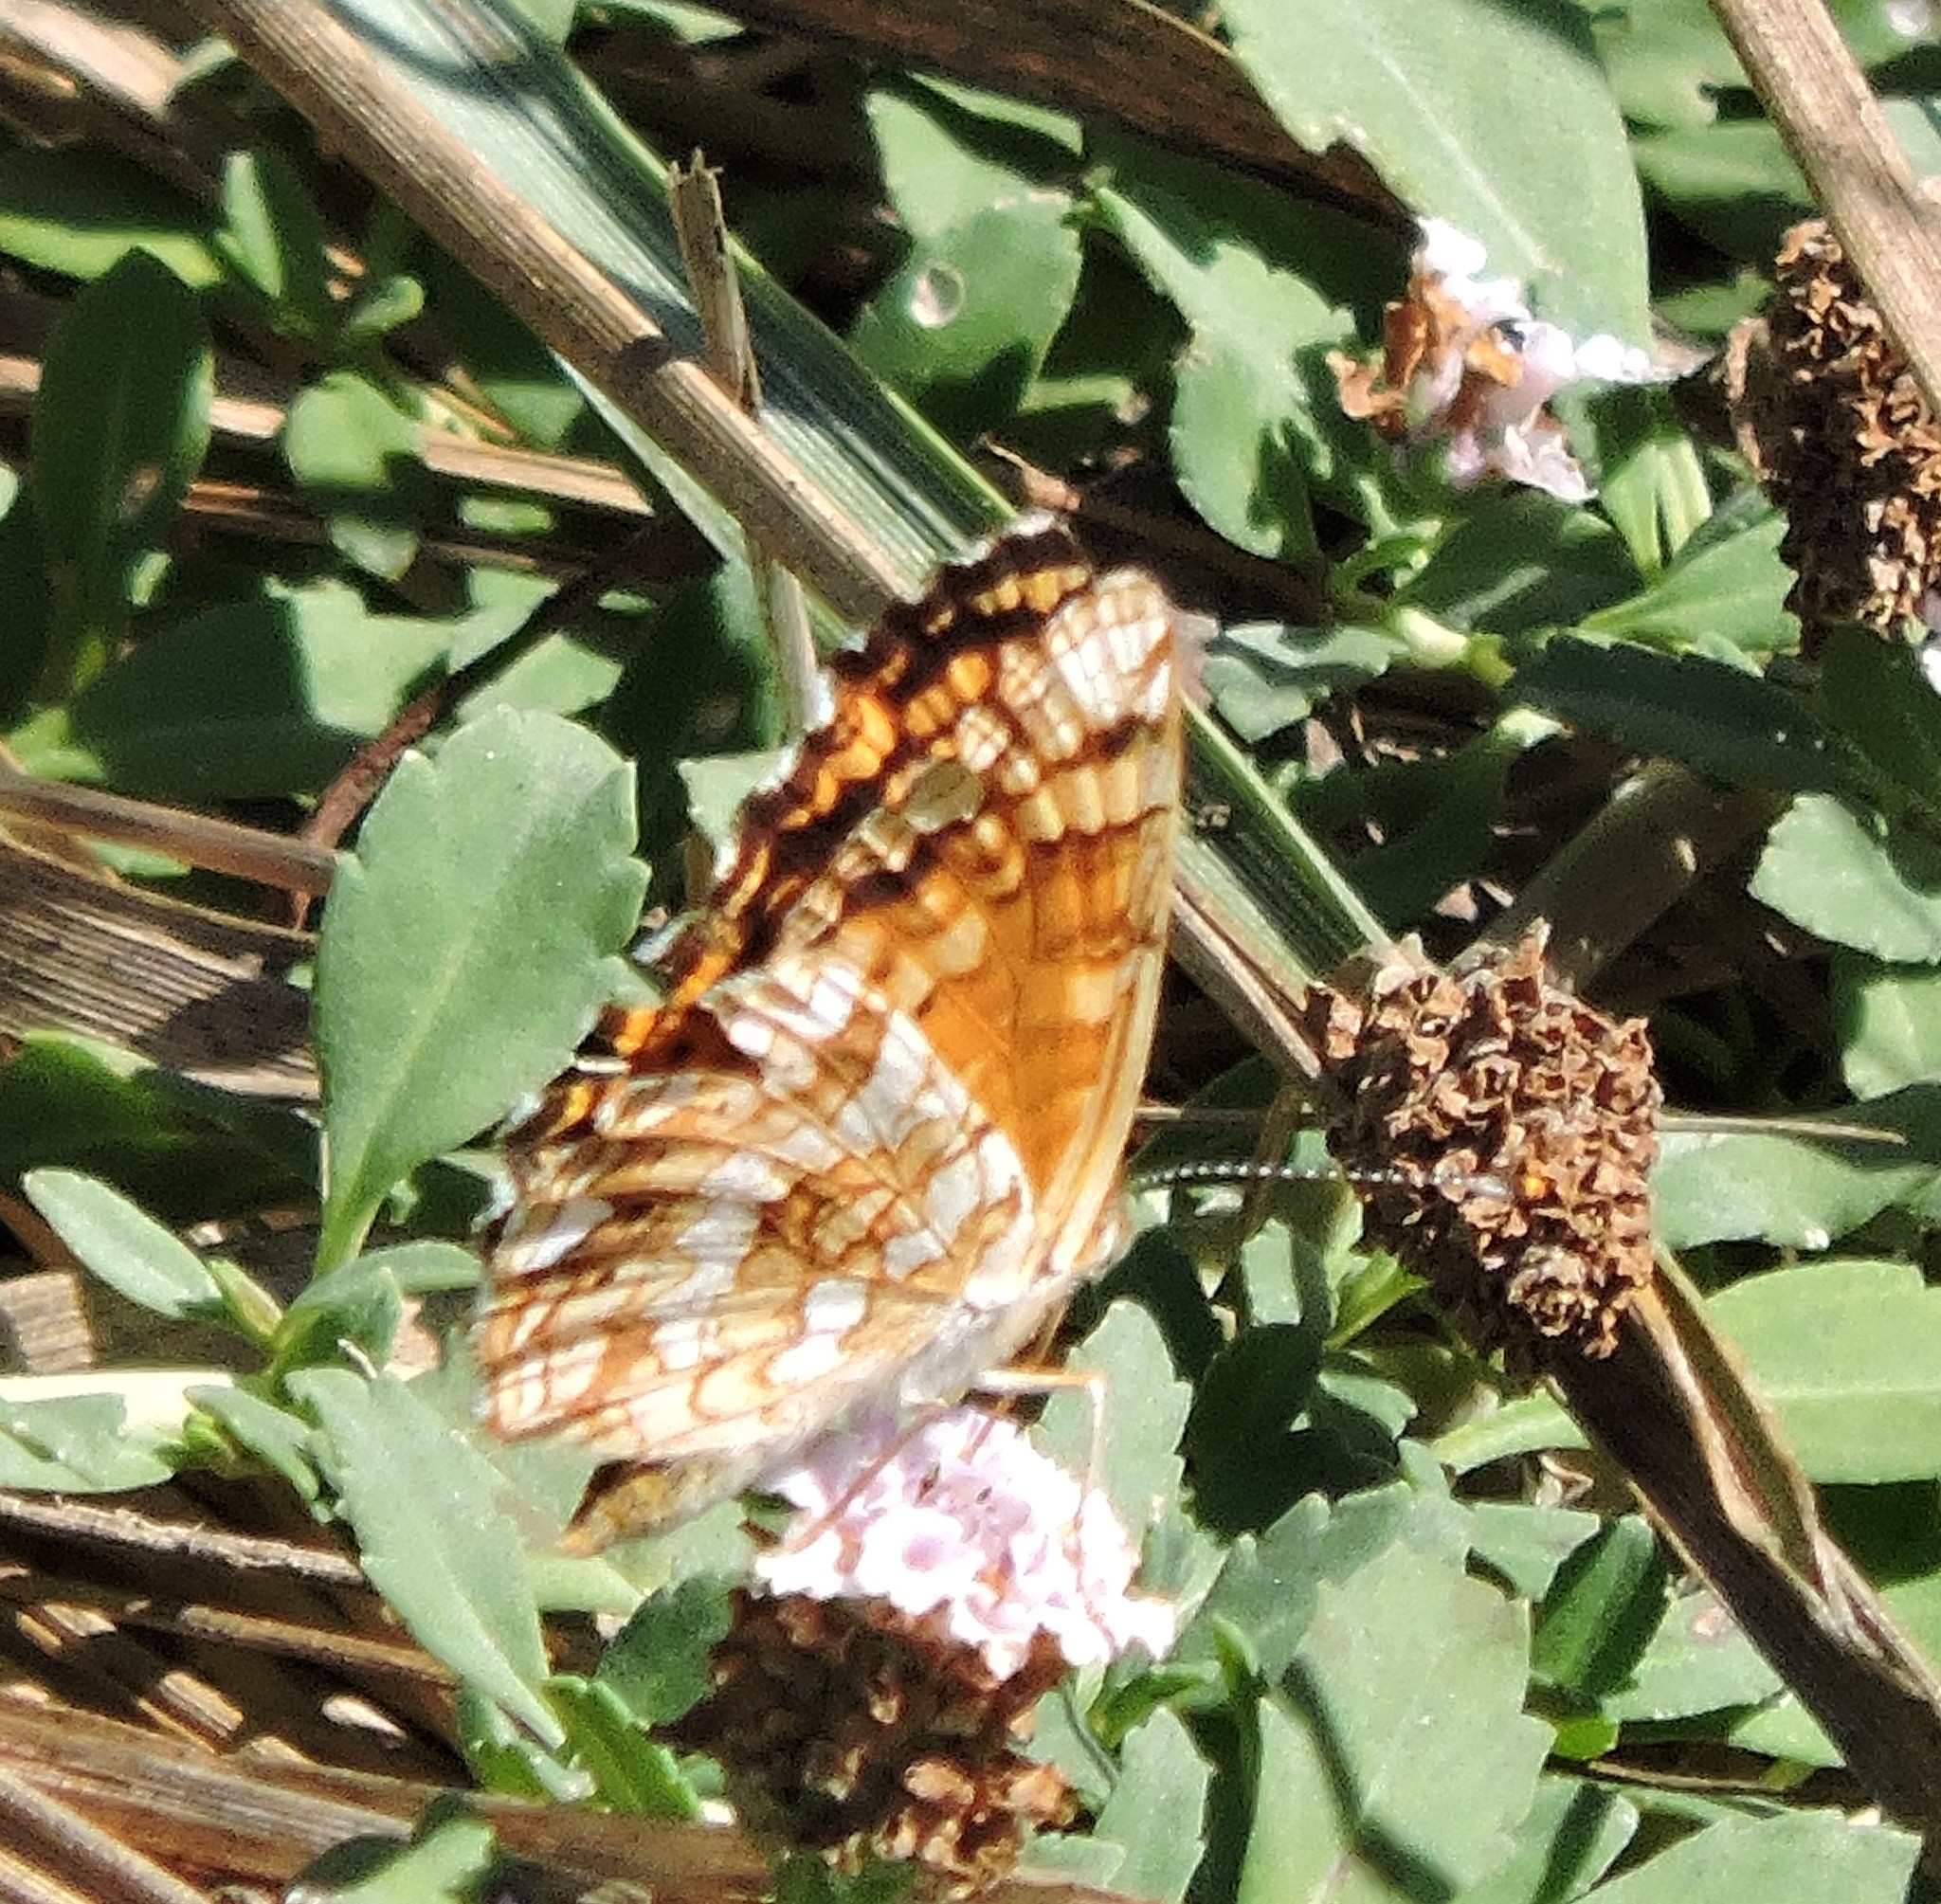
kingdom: Animalia
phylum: Arthropoda
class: Insecta
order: Lepidoptera
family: Nymphalidae
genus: Eresia
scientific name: Eresia aveyrona
